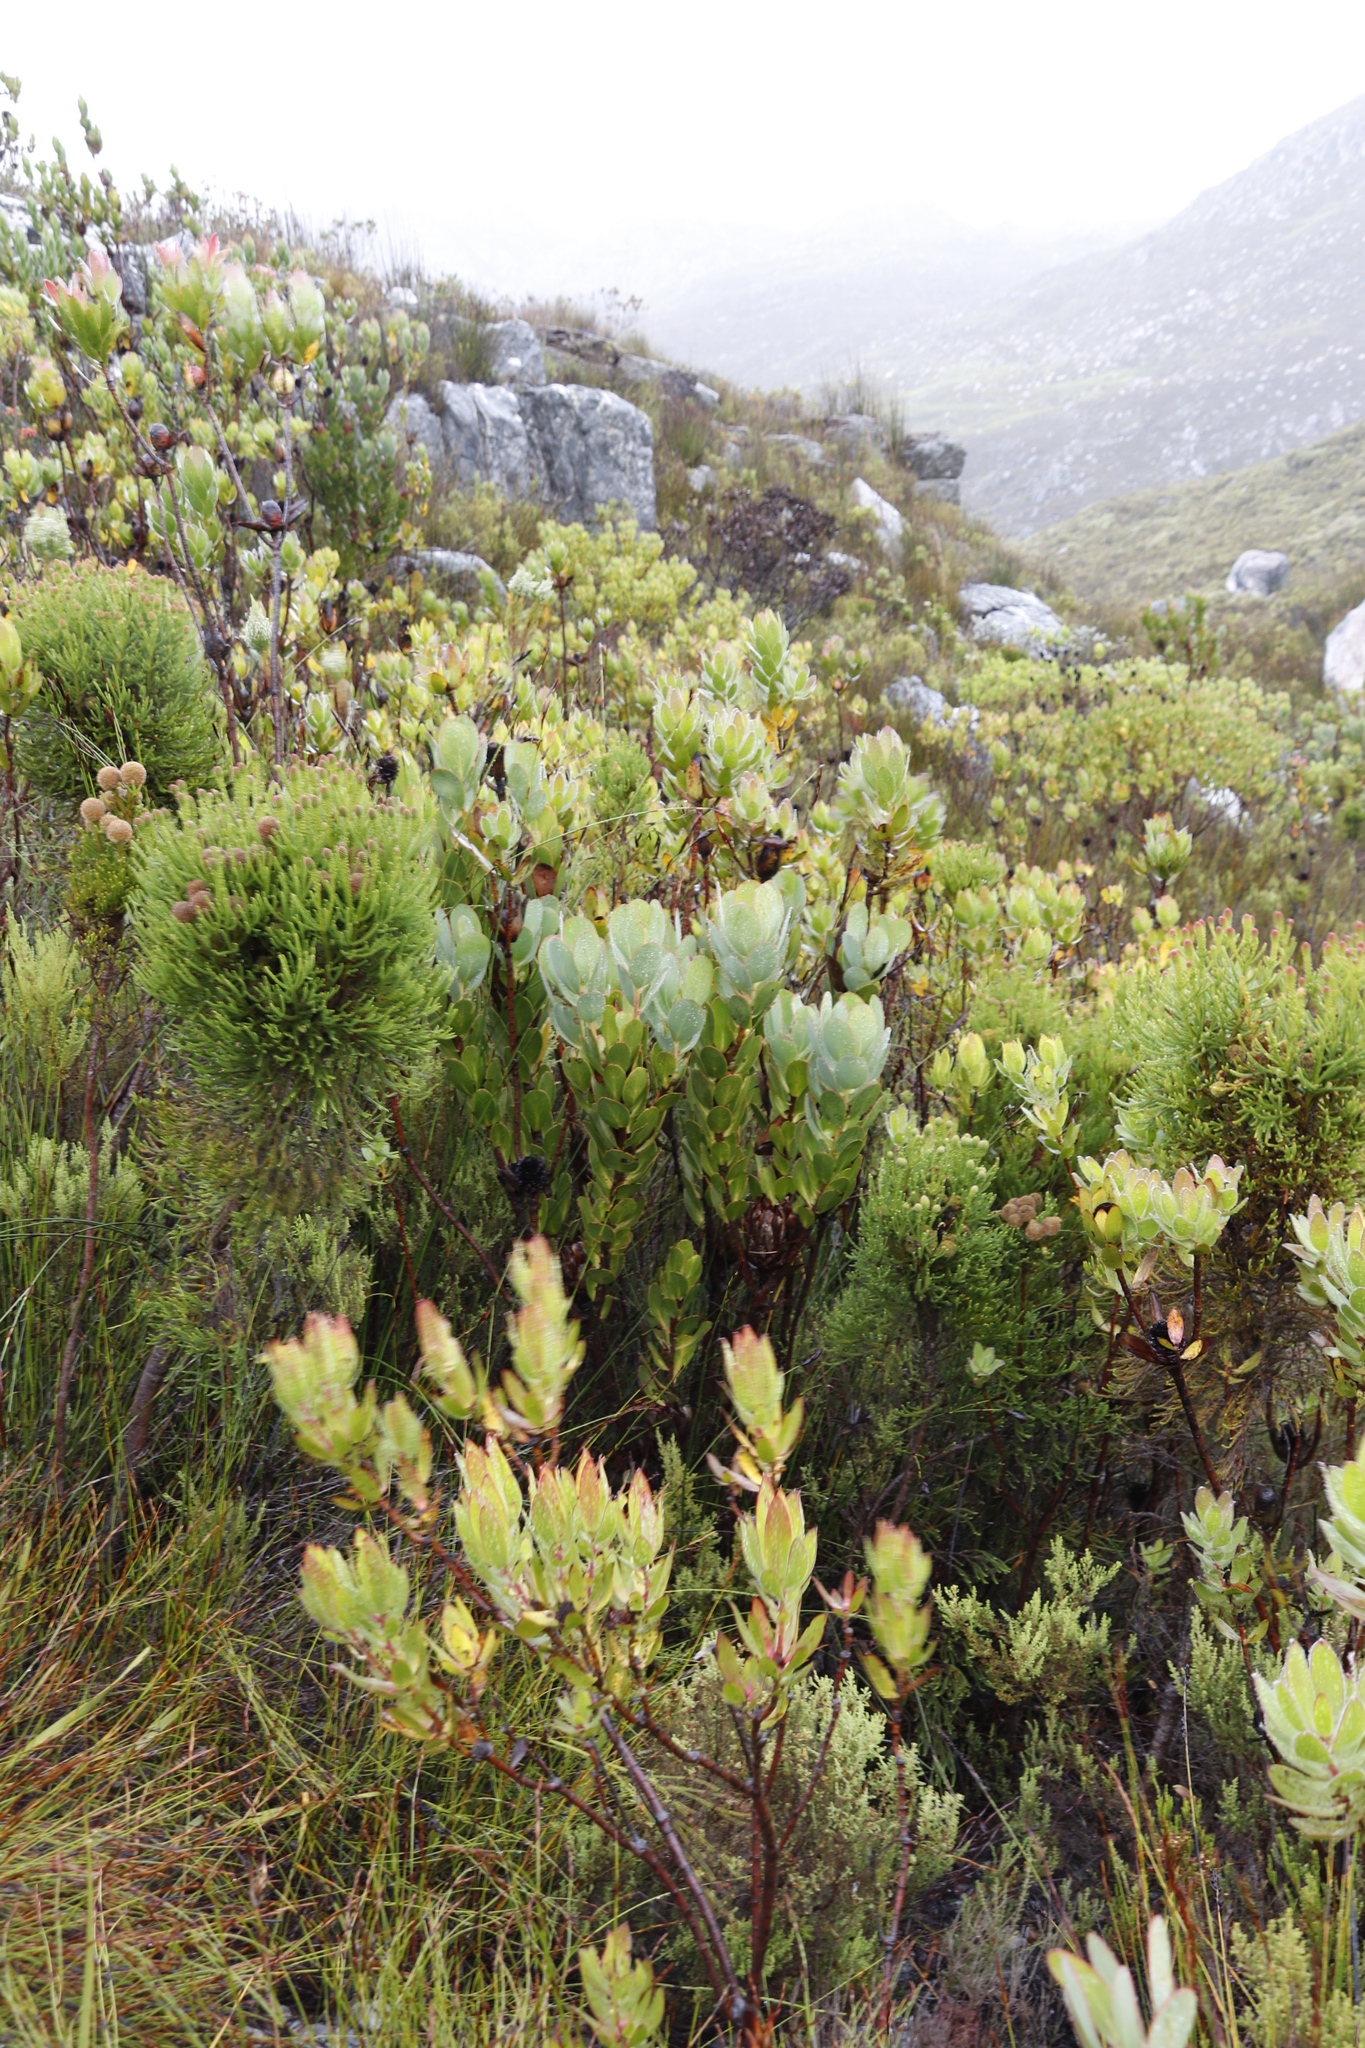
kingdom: Plantae
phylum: Tracheophyta
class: Magnoliopsida
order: Proteales
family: Proteaceae
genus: Leucadendron
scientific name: Leucadendron gandogeri
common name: Broad-leaf conebush
